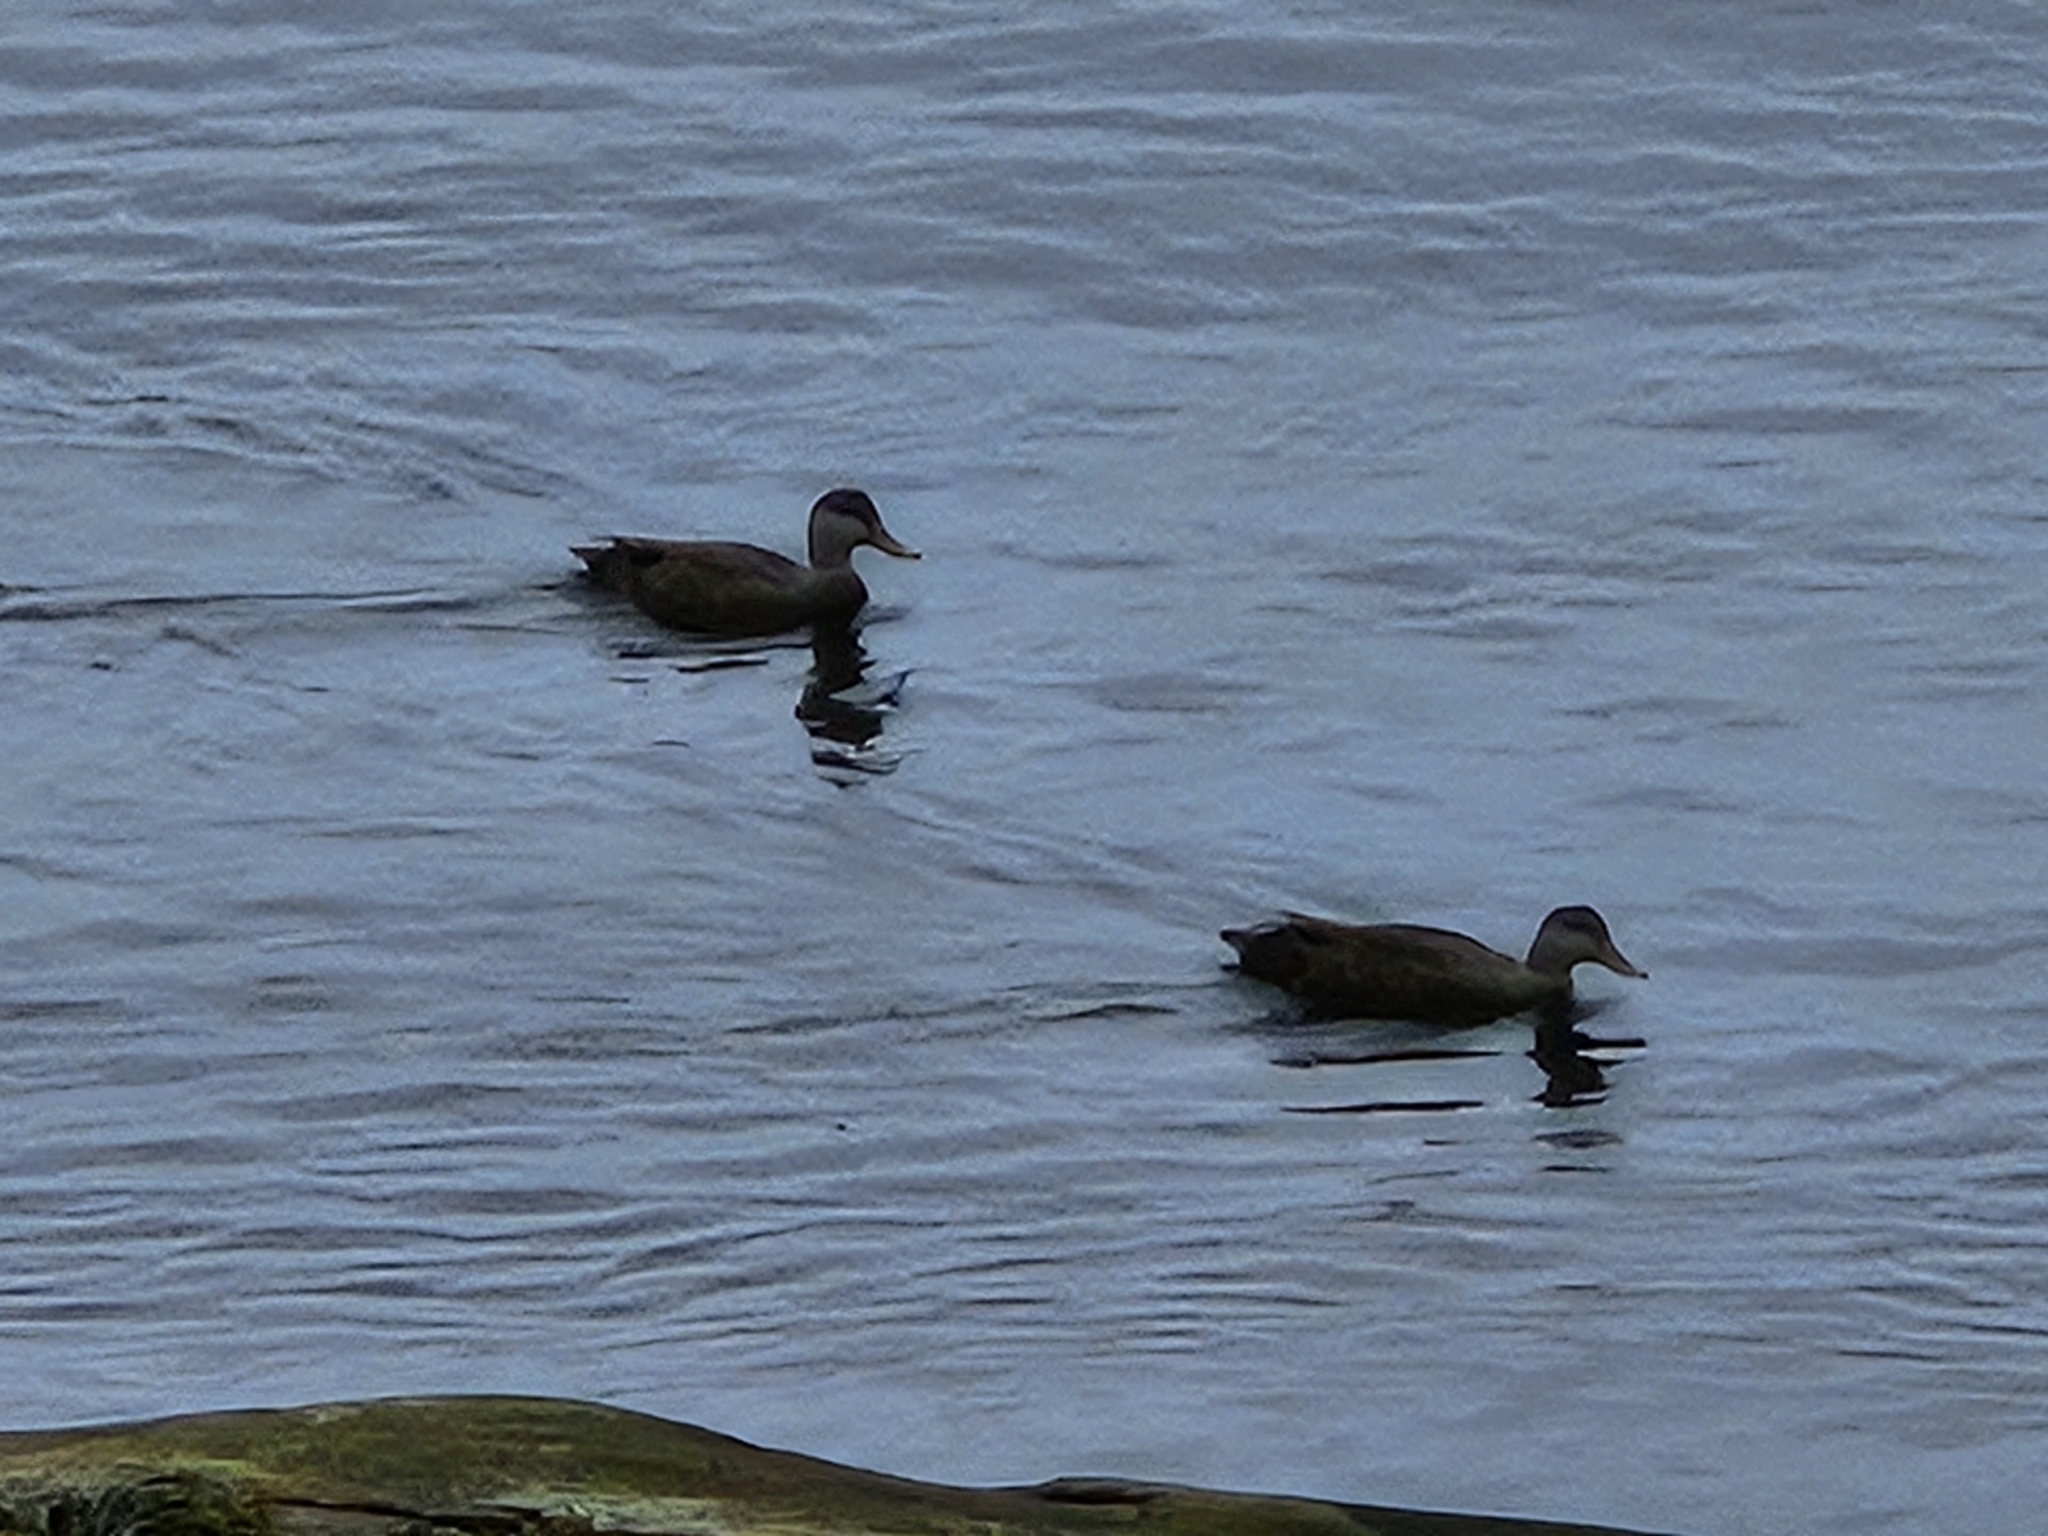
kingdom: Animalia
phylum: Chordata
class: Aves
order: Anseriformes
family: Anatidae
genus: Anas
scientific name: Anas rubripes
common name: American black duck
